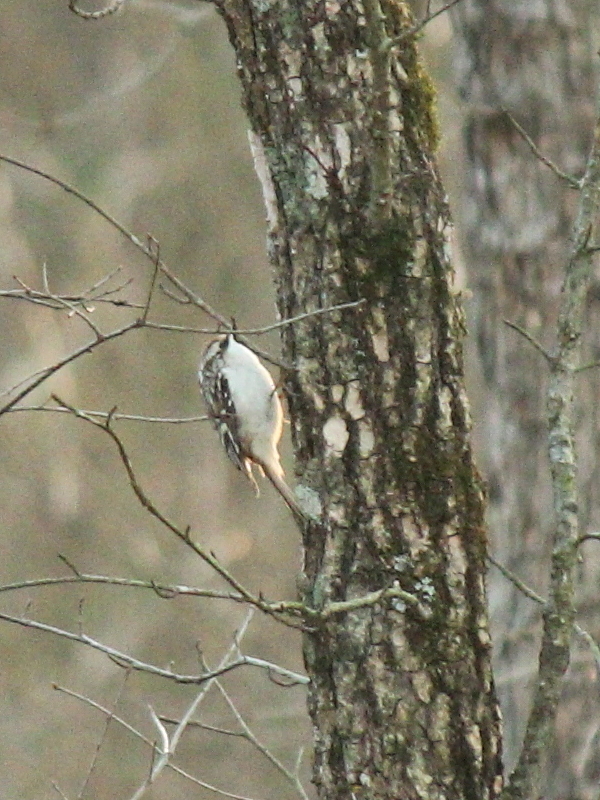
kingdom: Animalia
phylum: Chordata
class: Aves
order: Passeriformes
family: Certhiidae
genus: Certhia
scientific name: Certhia americana
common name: Brown creeper
